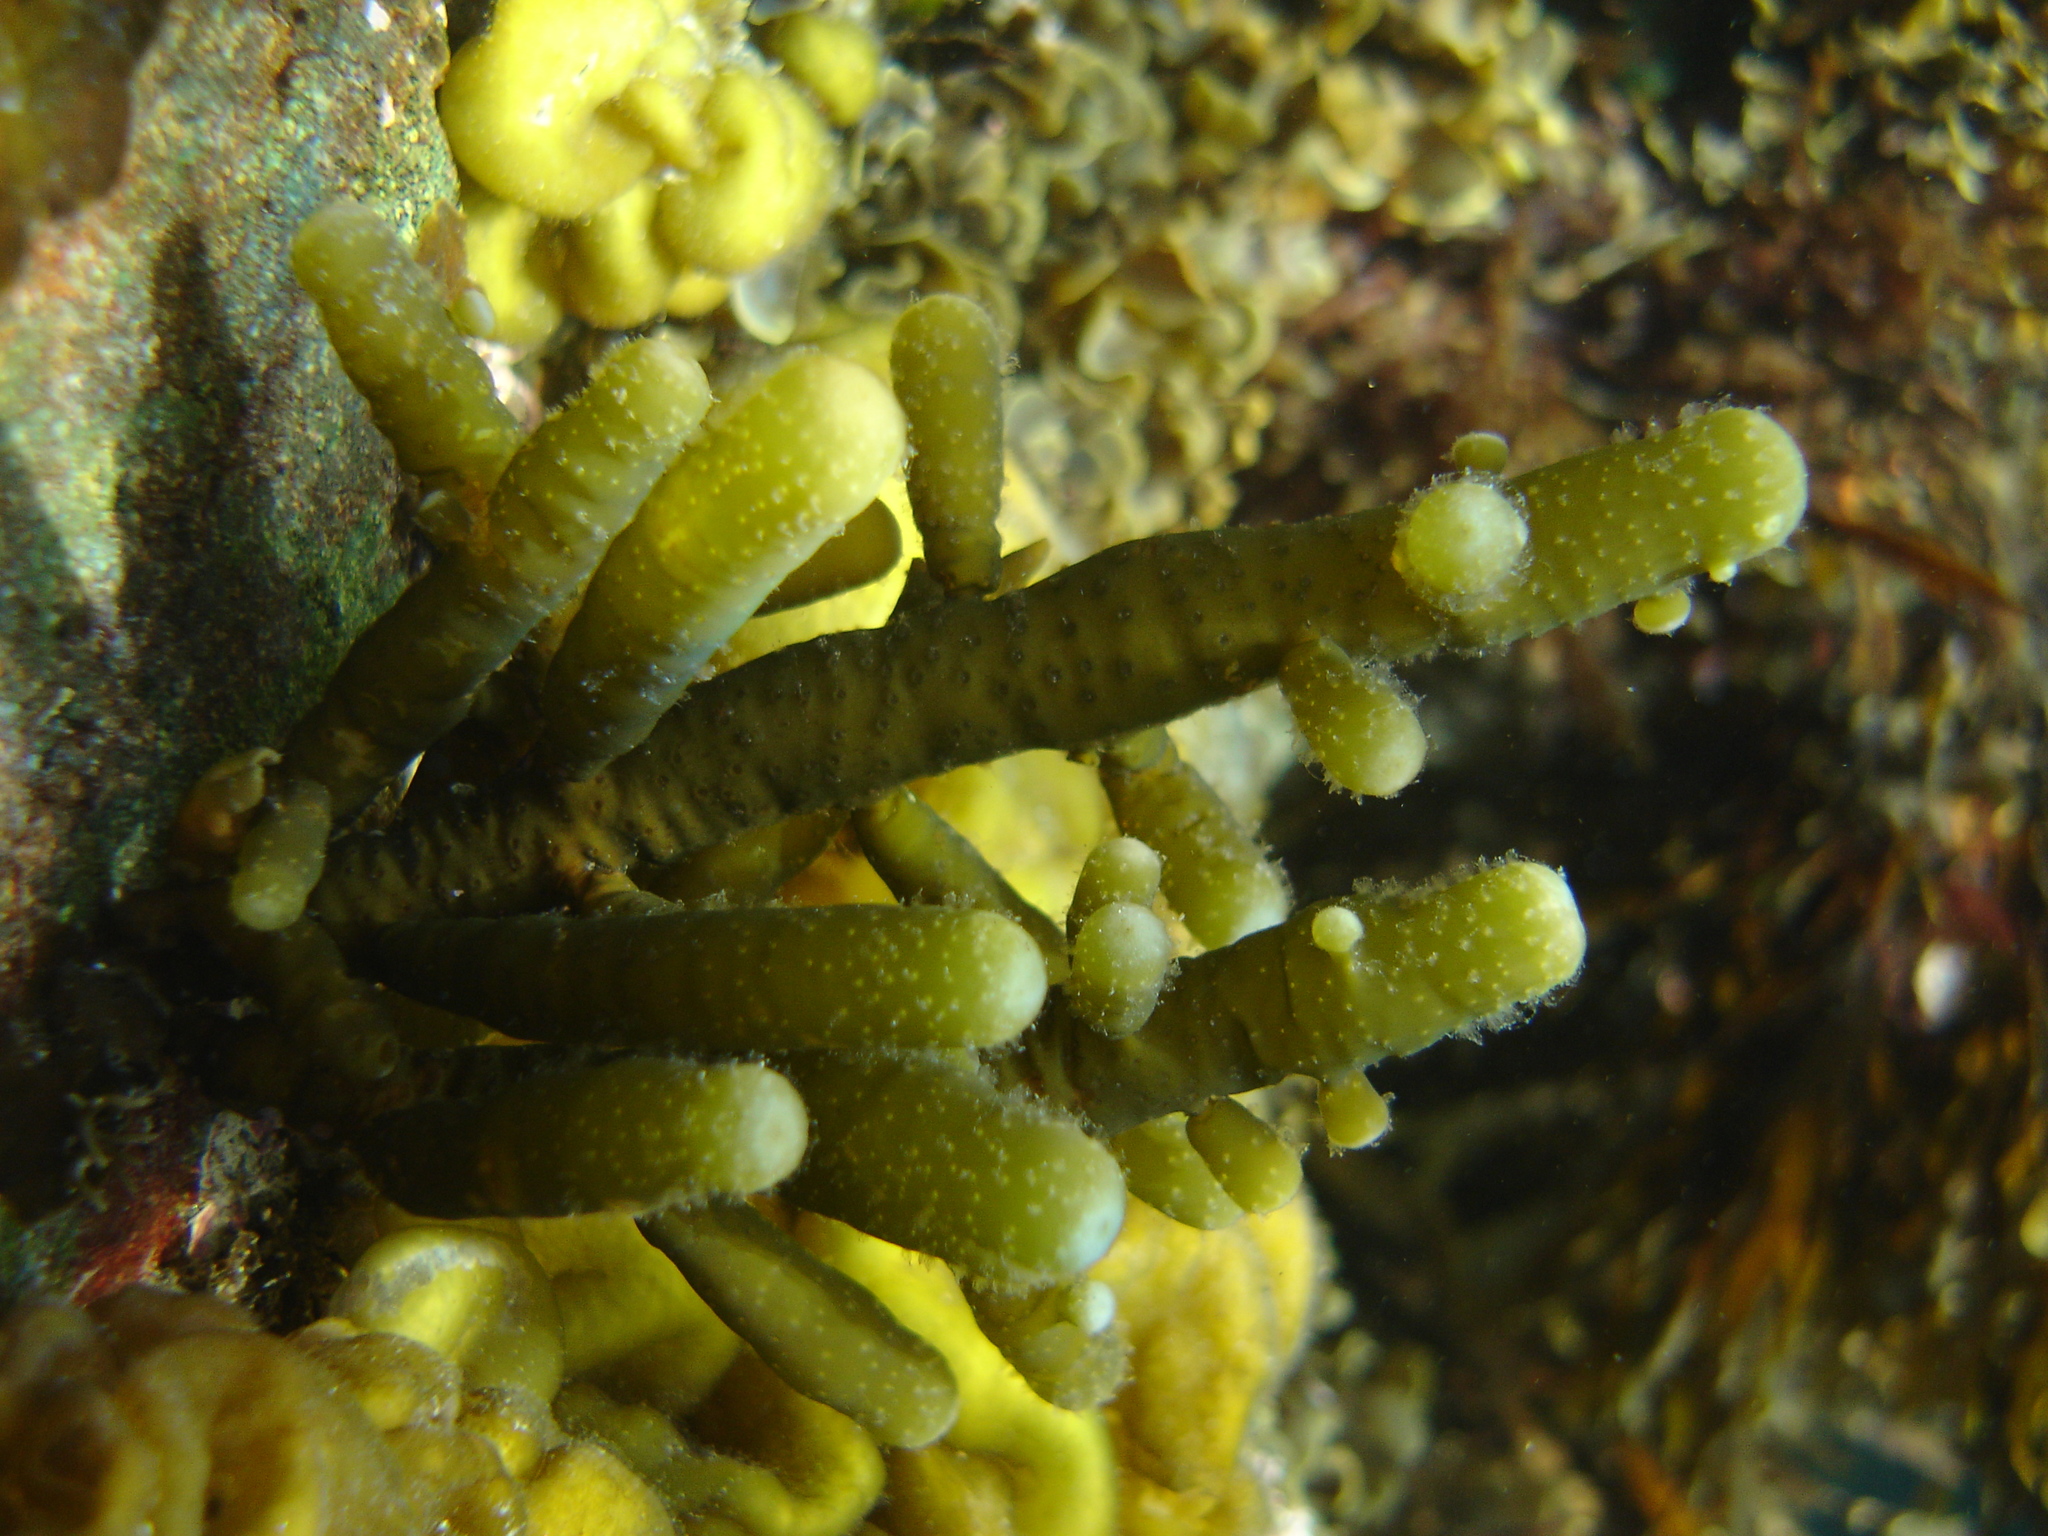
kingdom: Chromista
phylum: Ochrophyta
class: Phaeophyceae
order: Scytothamnales
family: Splachnidiaceae
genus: Splachnidium
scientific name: Splachnidium rugosum
